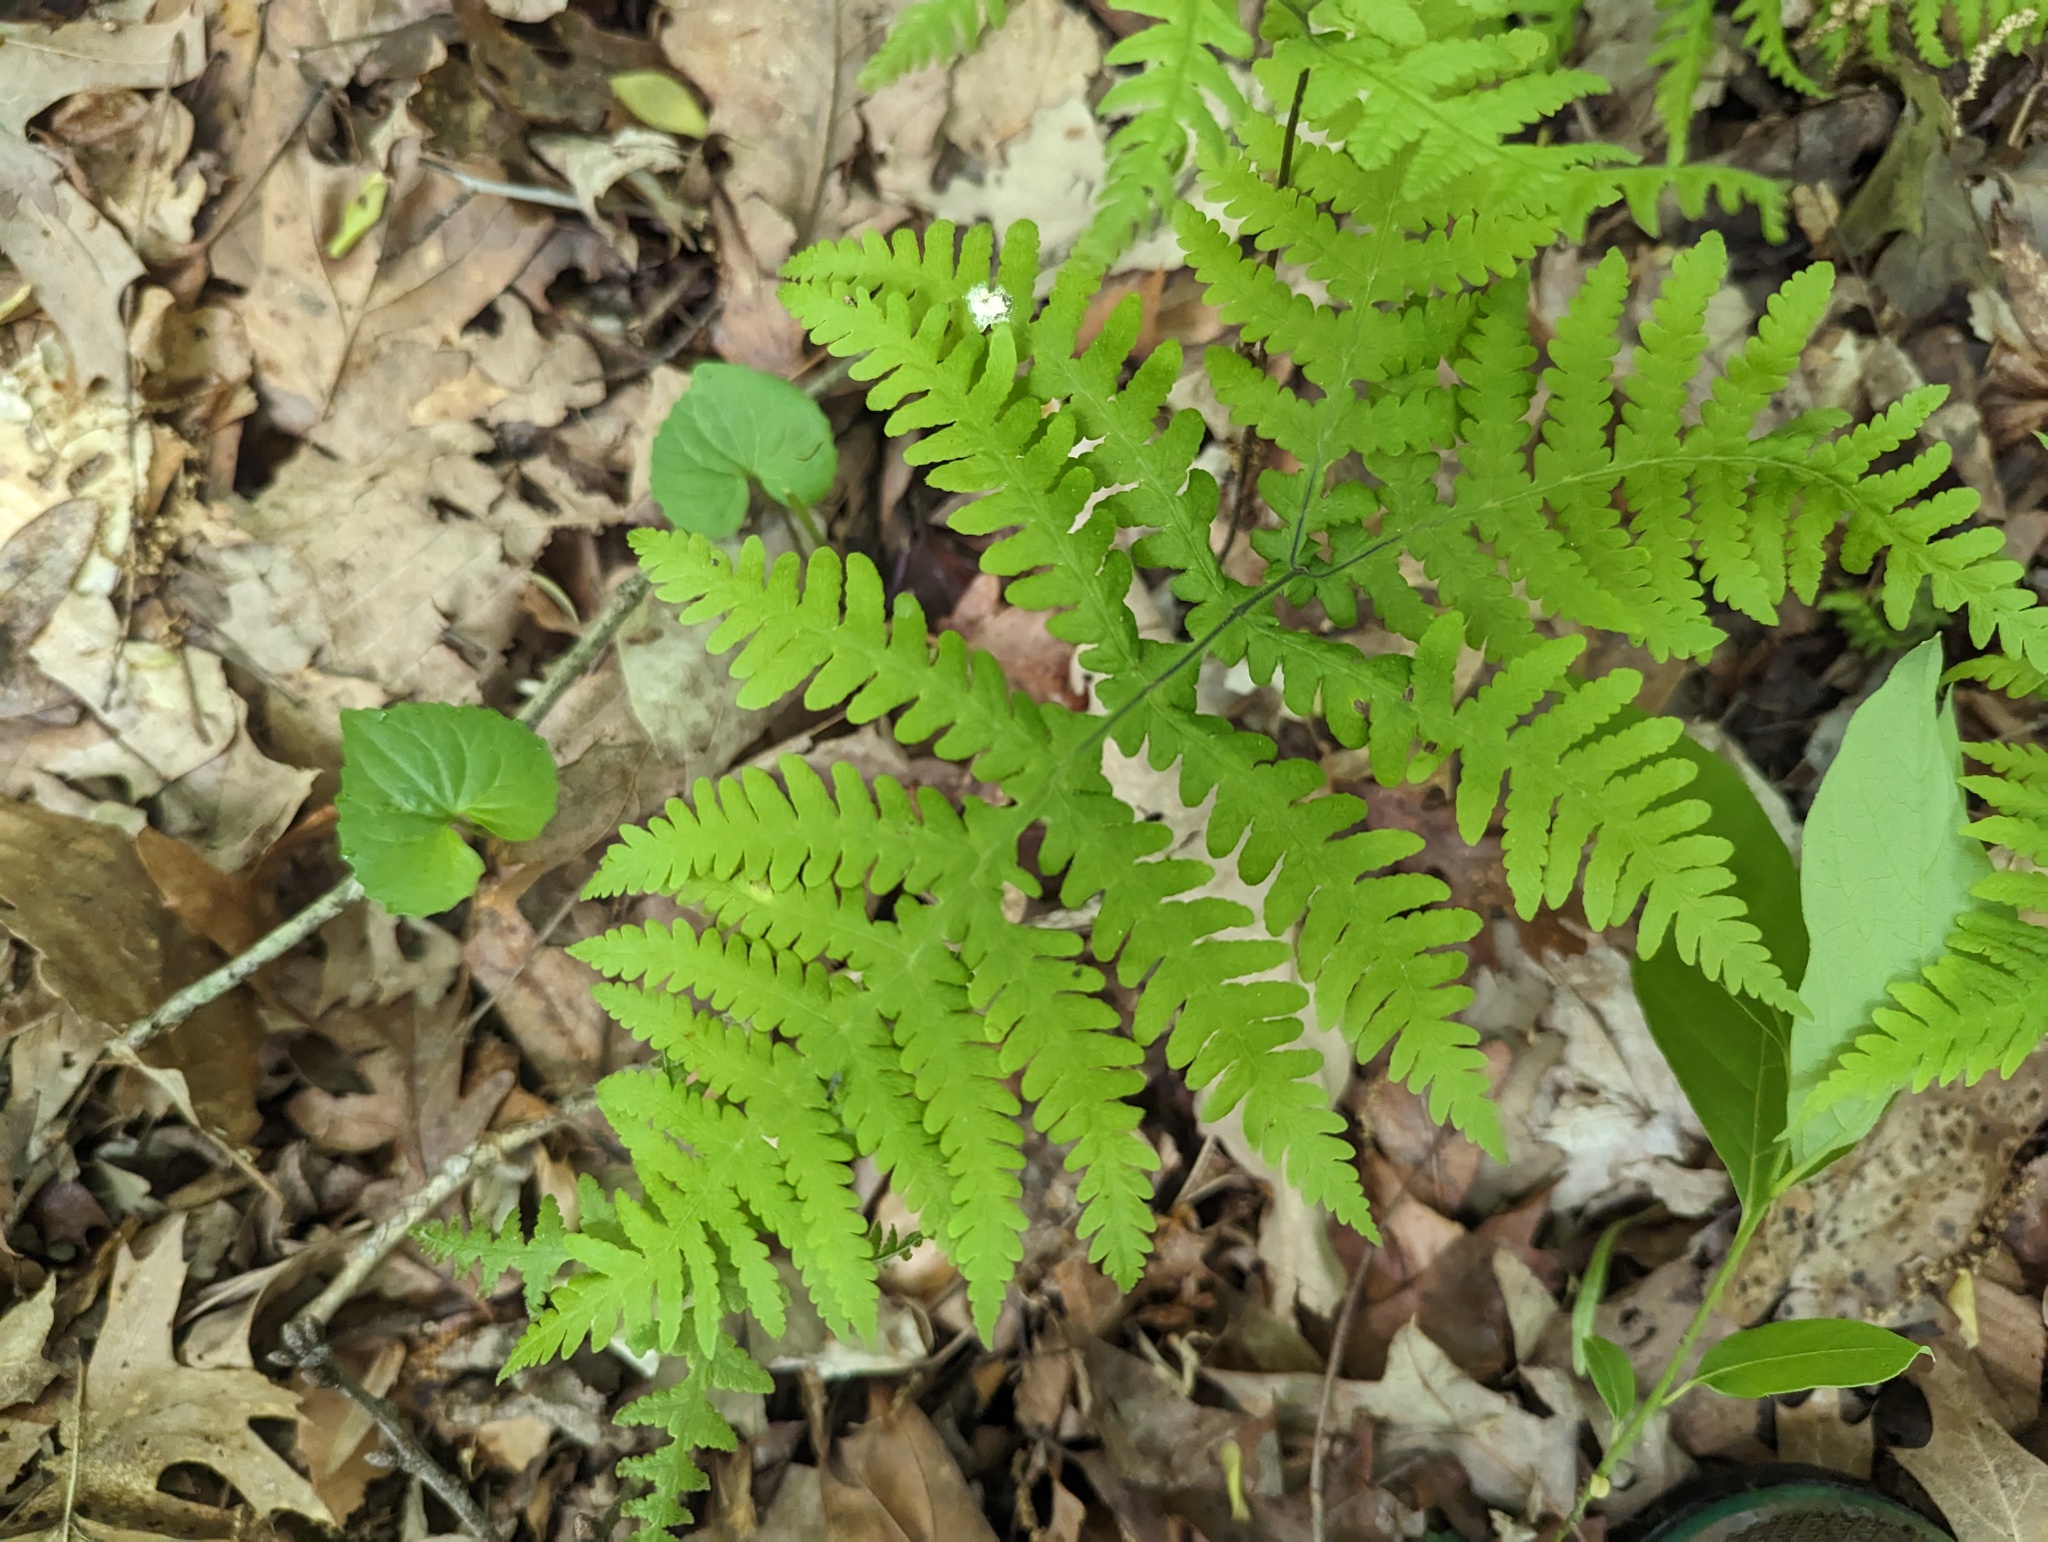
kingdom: Plantae
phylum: Tracheophyta
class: Polypodiopsida
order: Polypodiales
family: Thelypteridaceae
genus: Phegopteris
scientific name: Phegopteris hexagonoptera
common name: Broad beech fern
